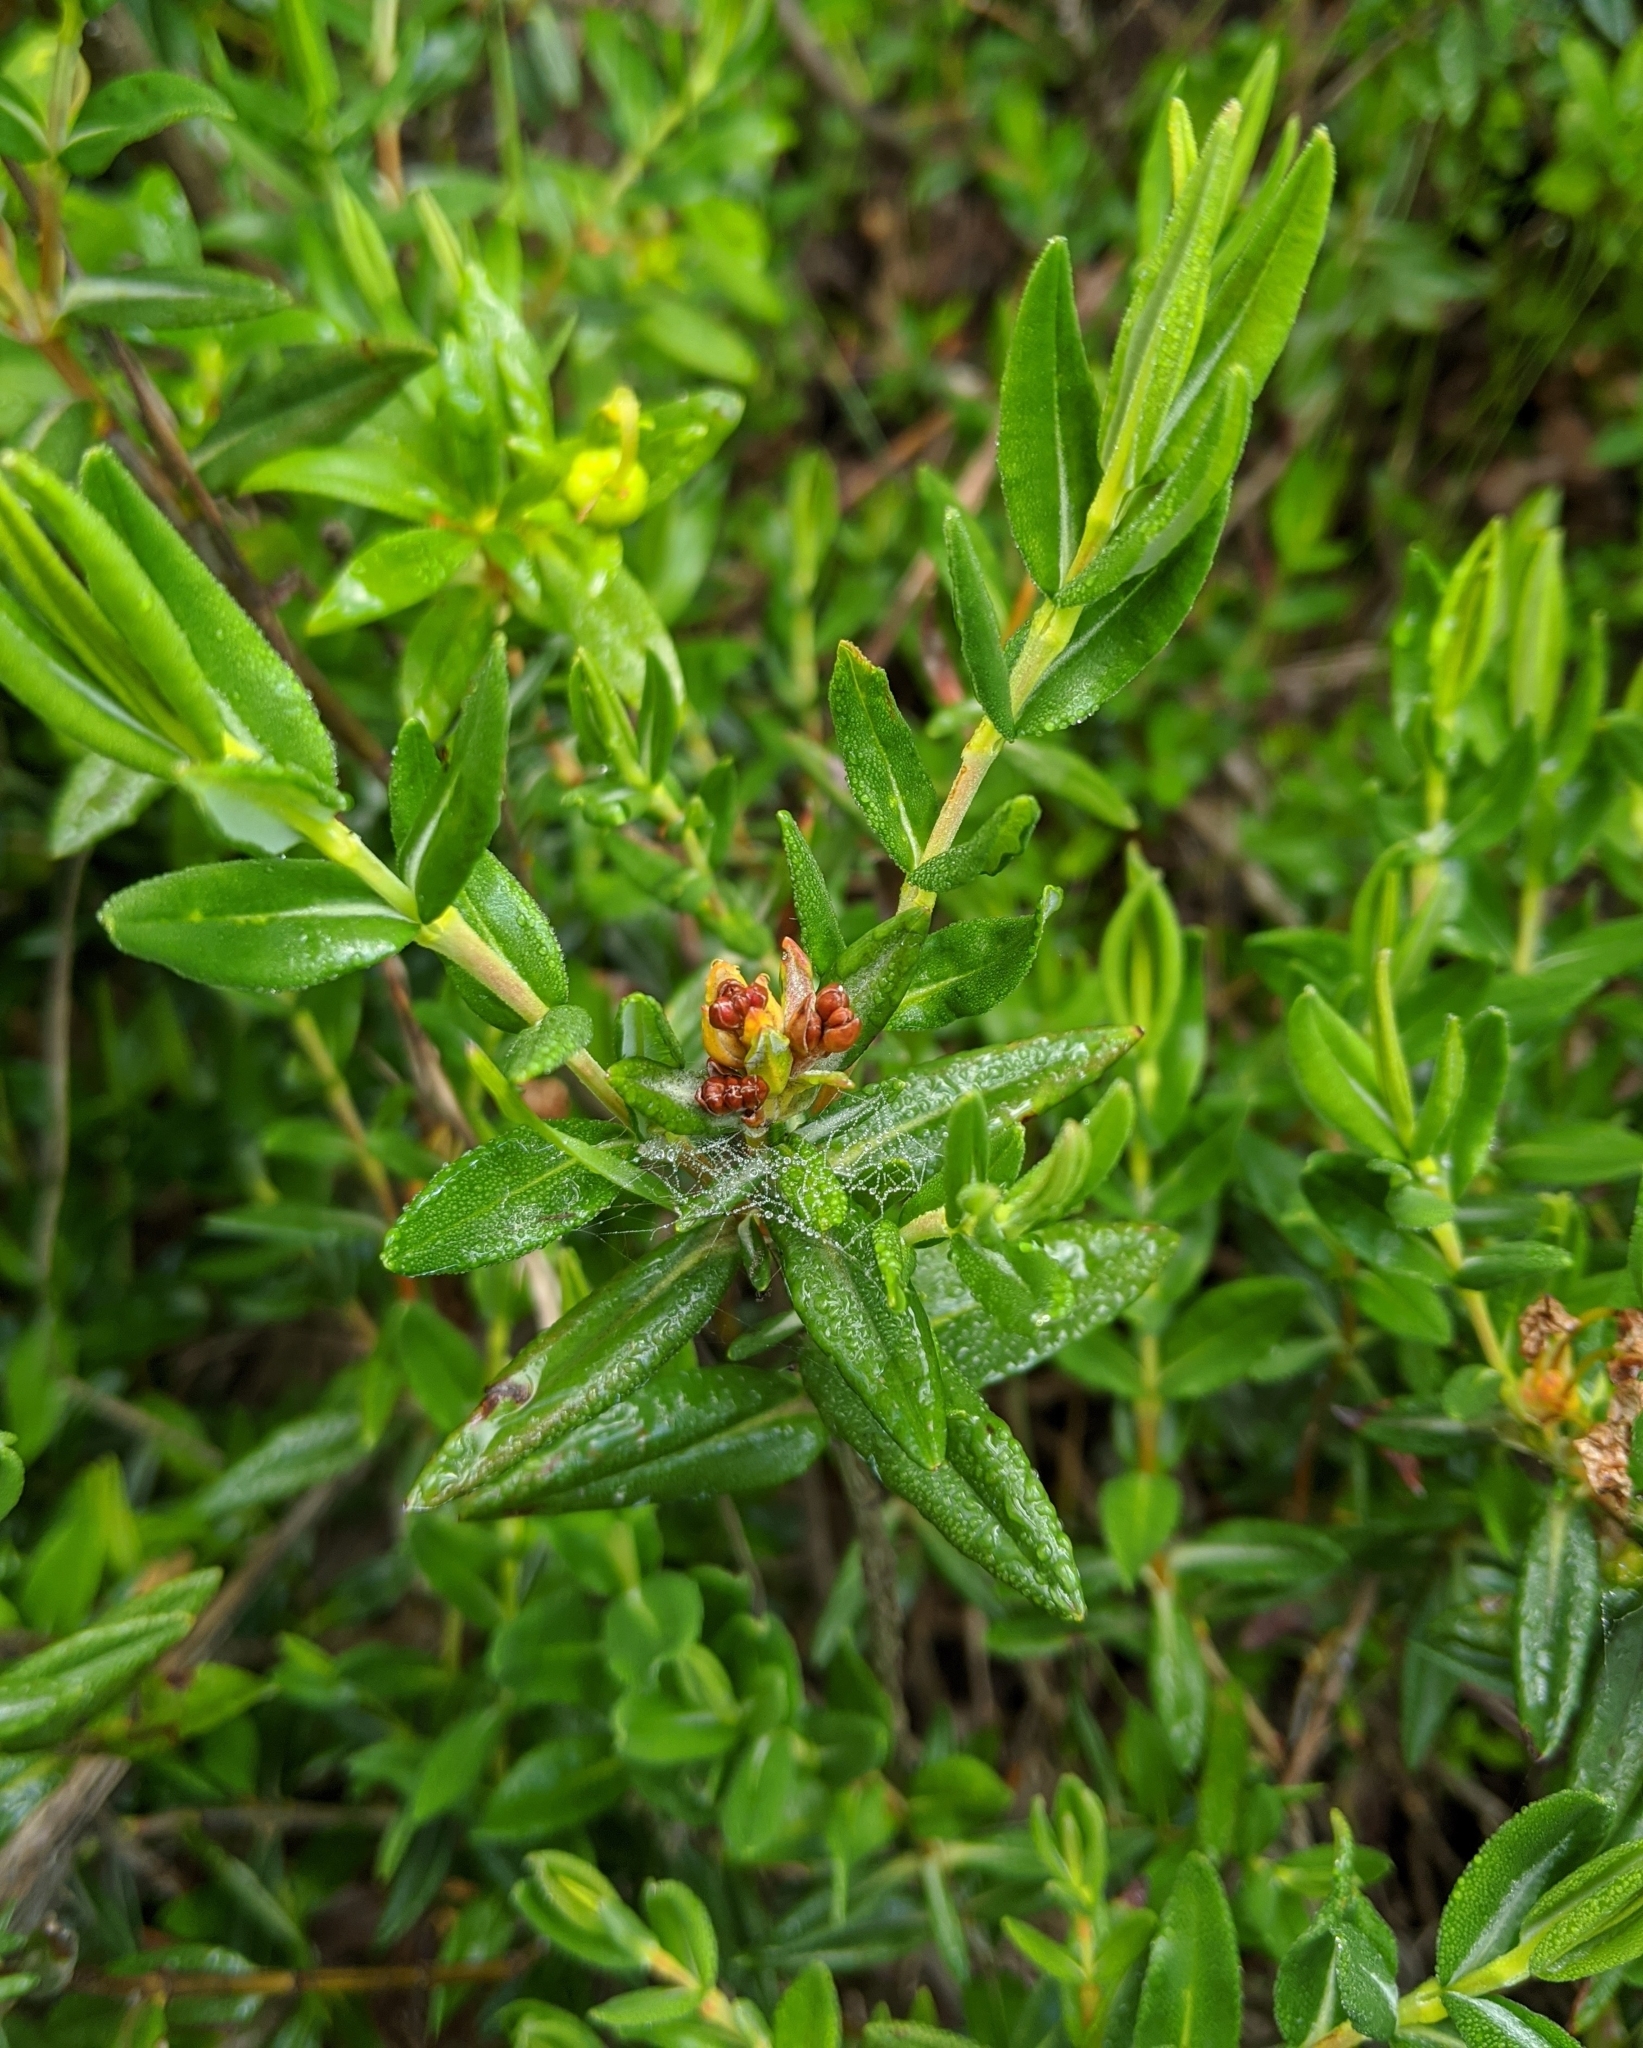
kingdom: Plantae
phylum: Tracheophyta
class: Magnoliopsida
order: Ericales
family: Ericaceae
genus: Kalmia
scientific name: Kalmia microphylla
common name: Alpine bog laurel
